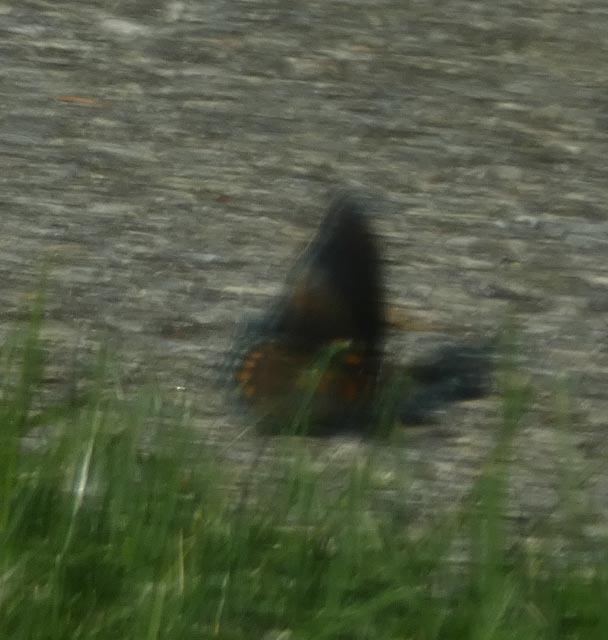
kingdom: Animalia
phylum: Arthropoda
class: Insecta
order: Lepidoptera
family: Nymphalidae
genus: Limenitis
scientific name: Limenitis astyanax
